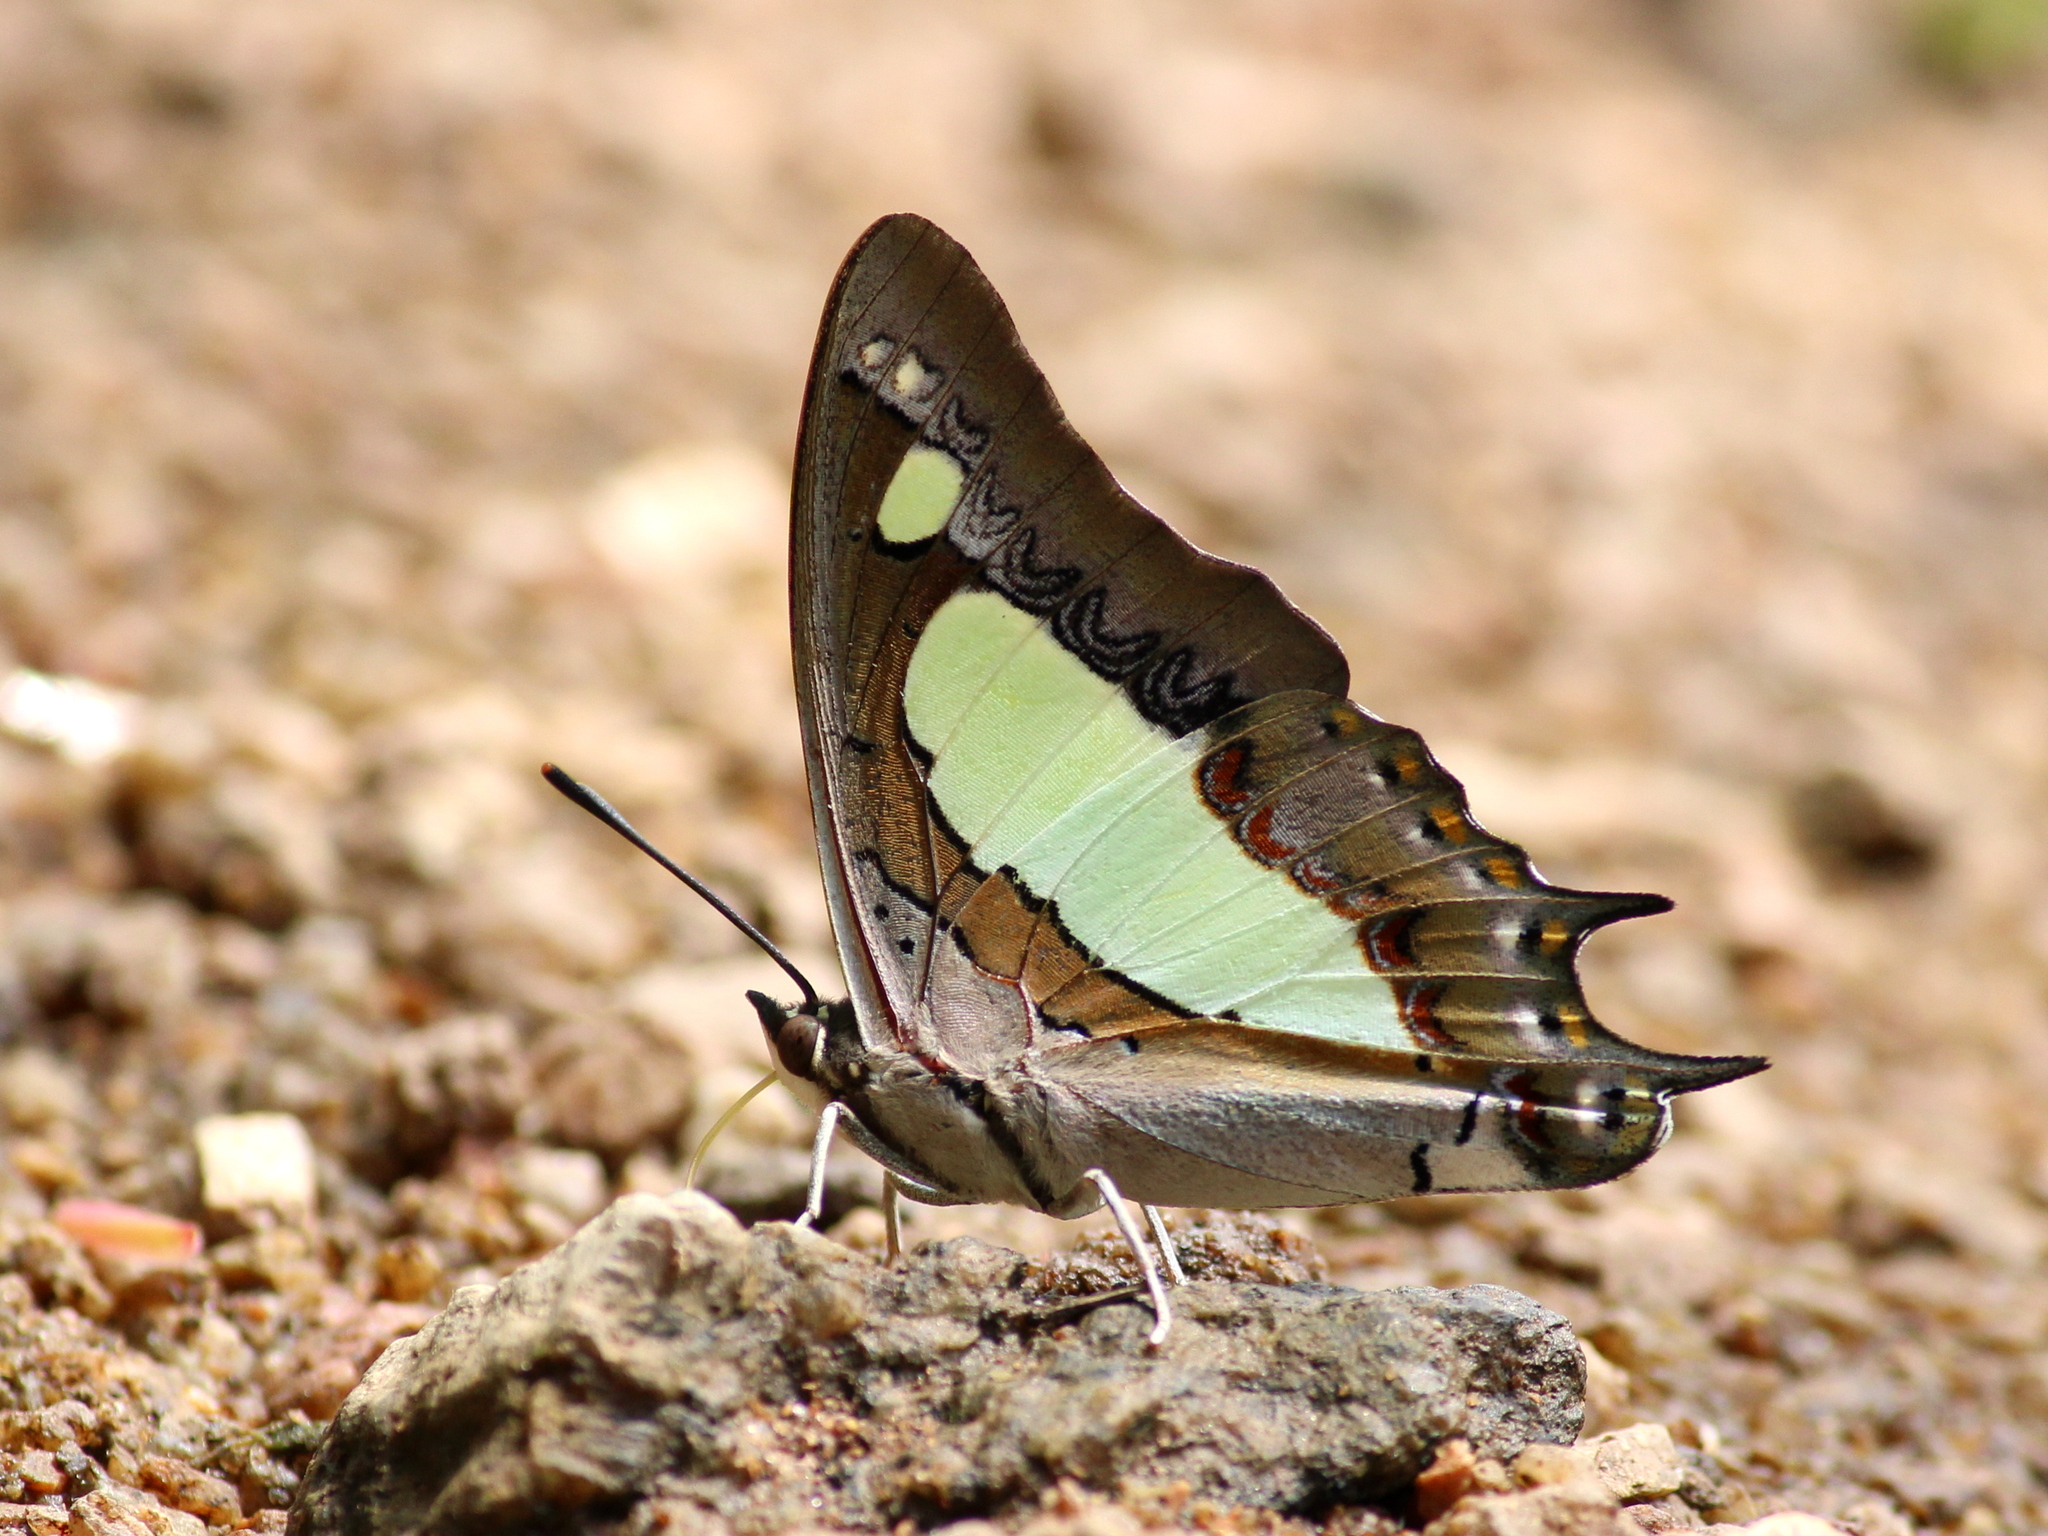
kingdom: Animalia
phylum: Arthropoda
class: Insecta
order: Lepidoptera
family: Nymphalidae
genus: Polyura
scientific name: Polyura agrarius
